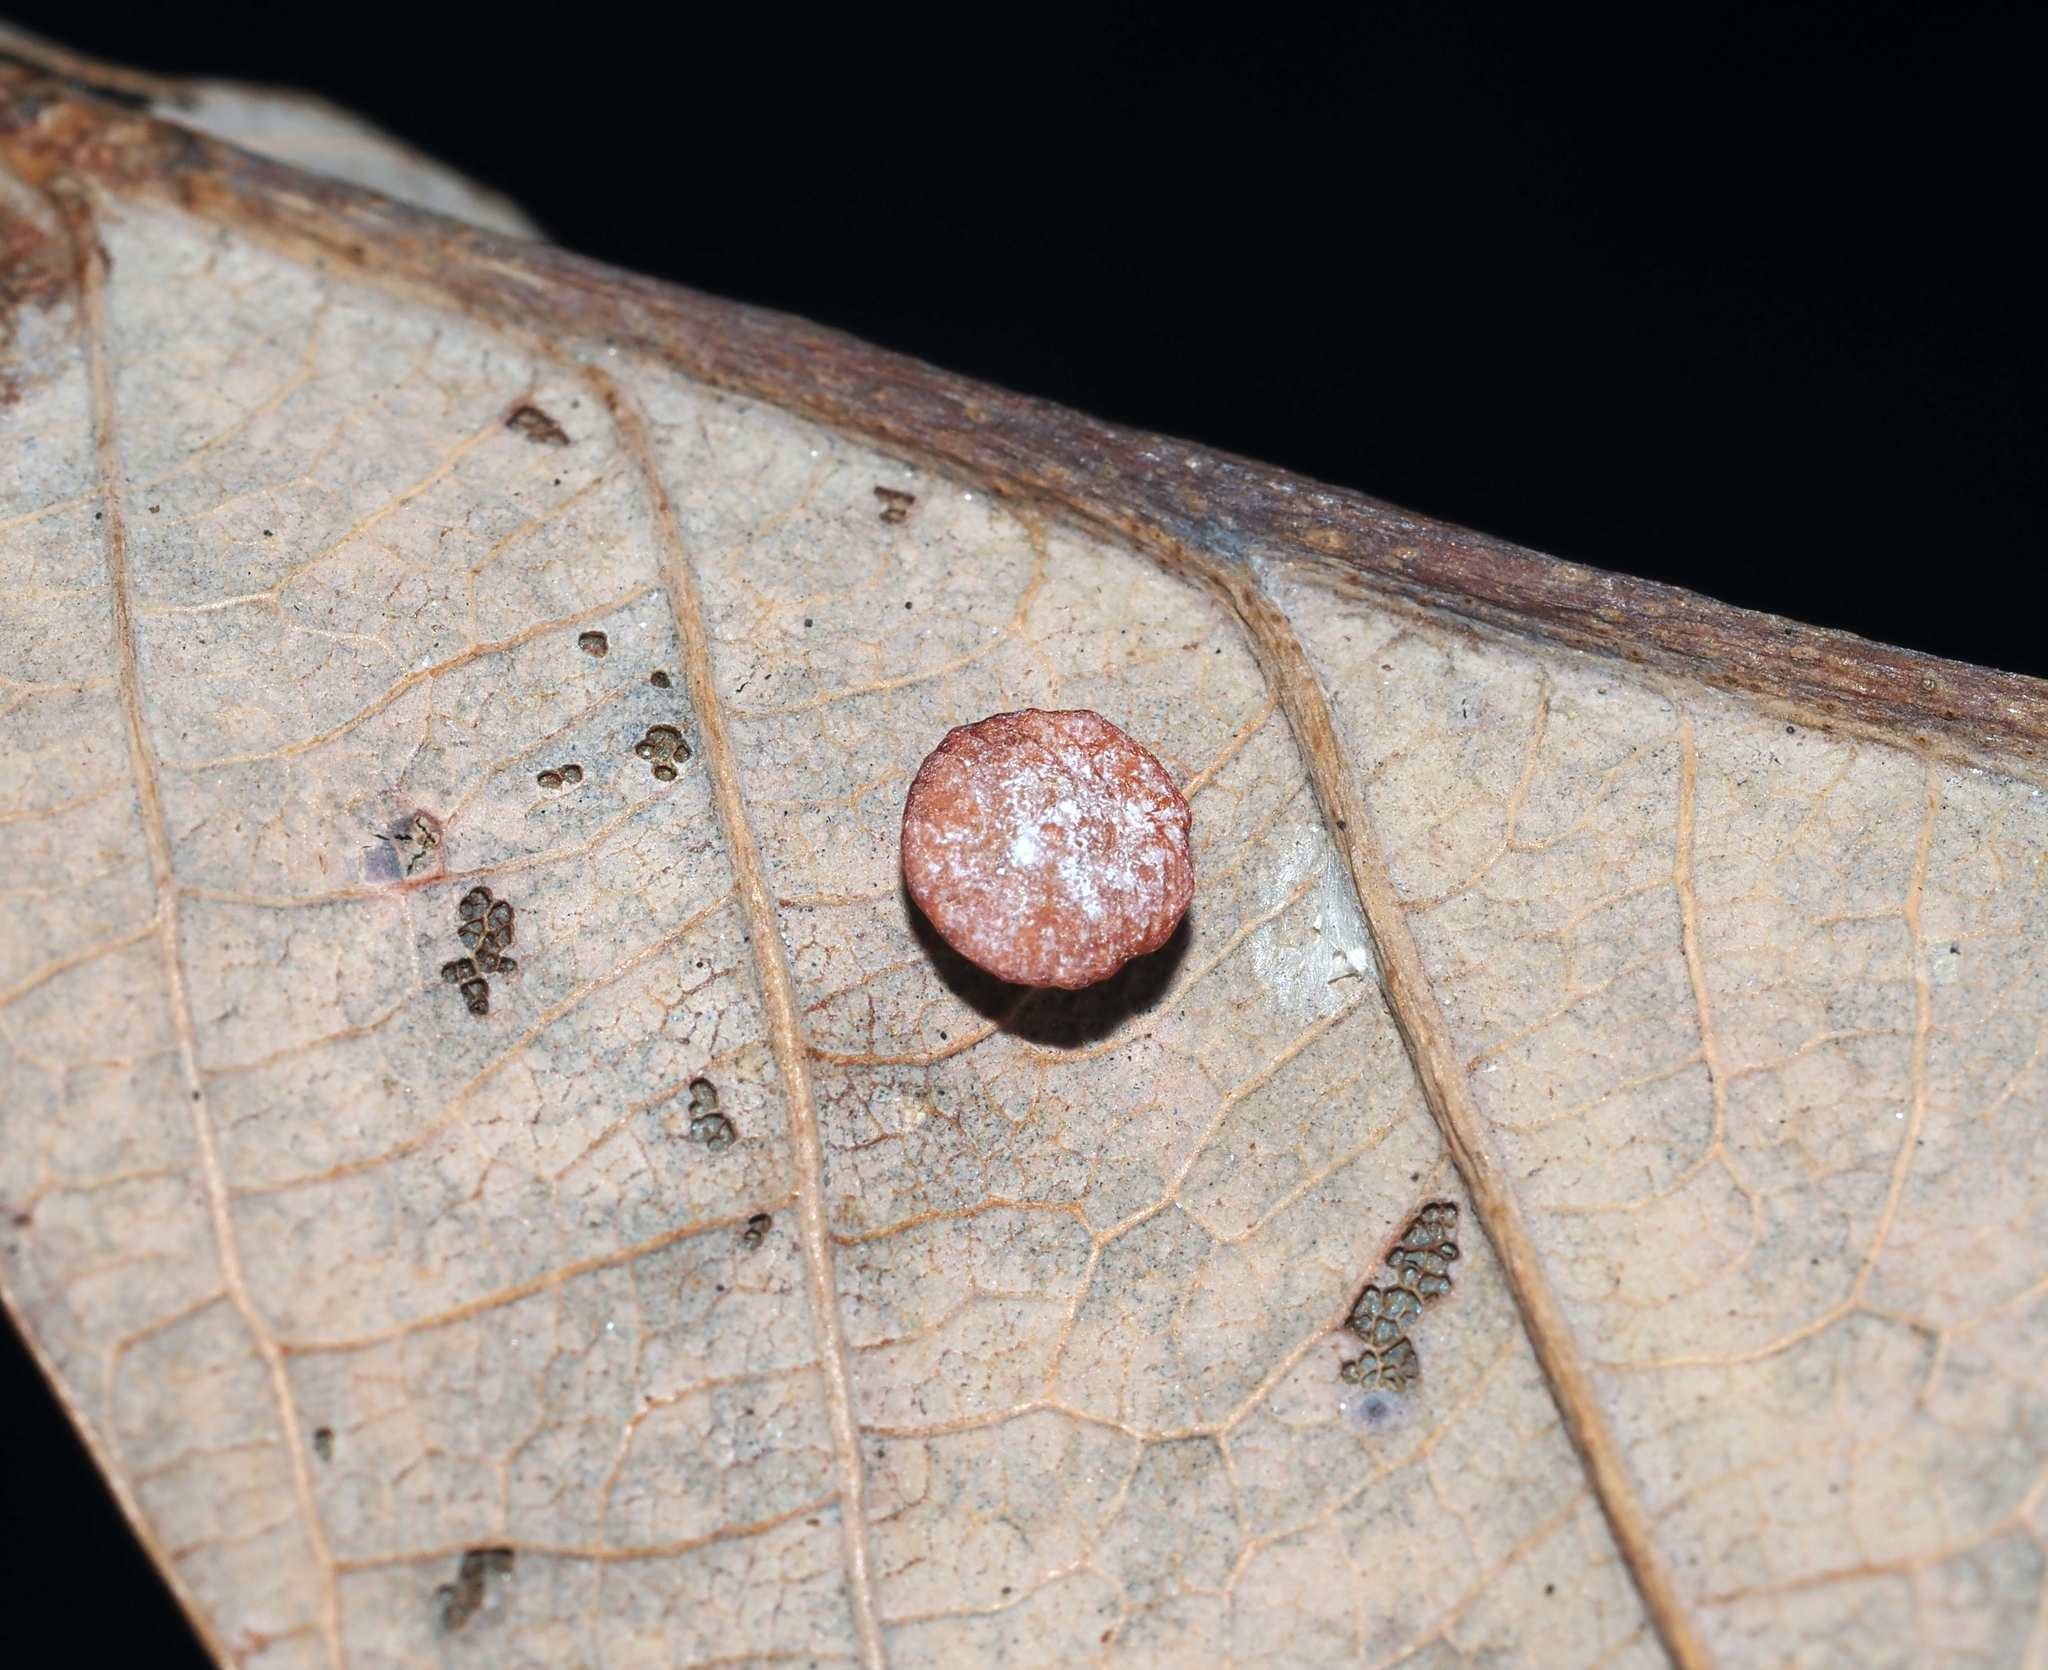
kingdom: Animalia
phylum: Arthropoda
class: Insecta
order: Hymenoptera
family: Cynipidae
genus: Phylloteras
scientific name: Phylloteras poculum
